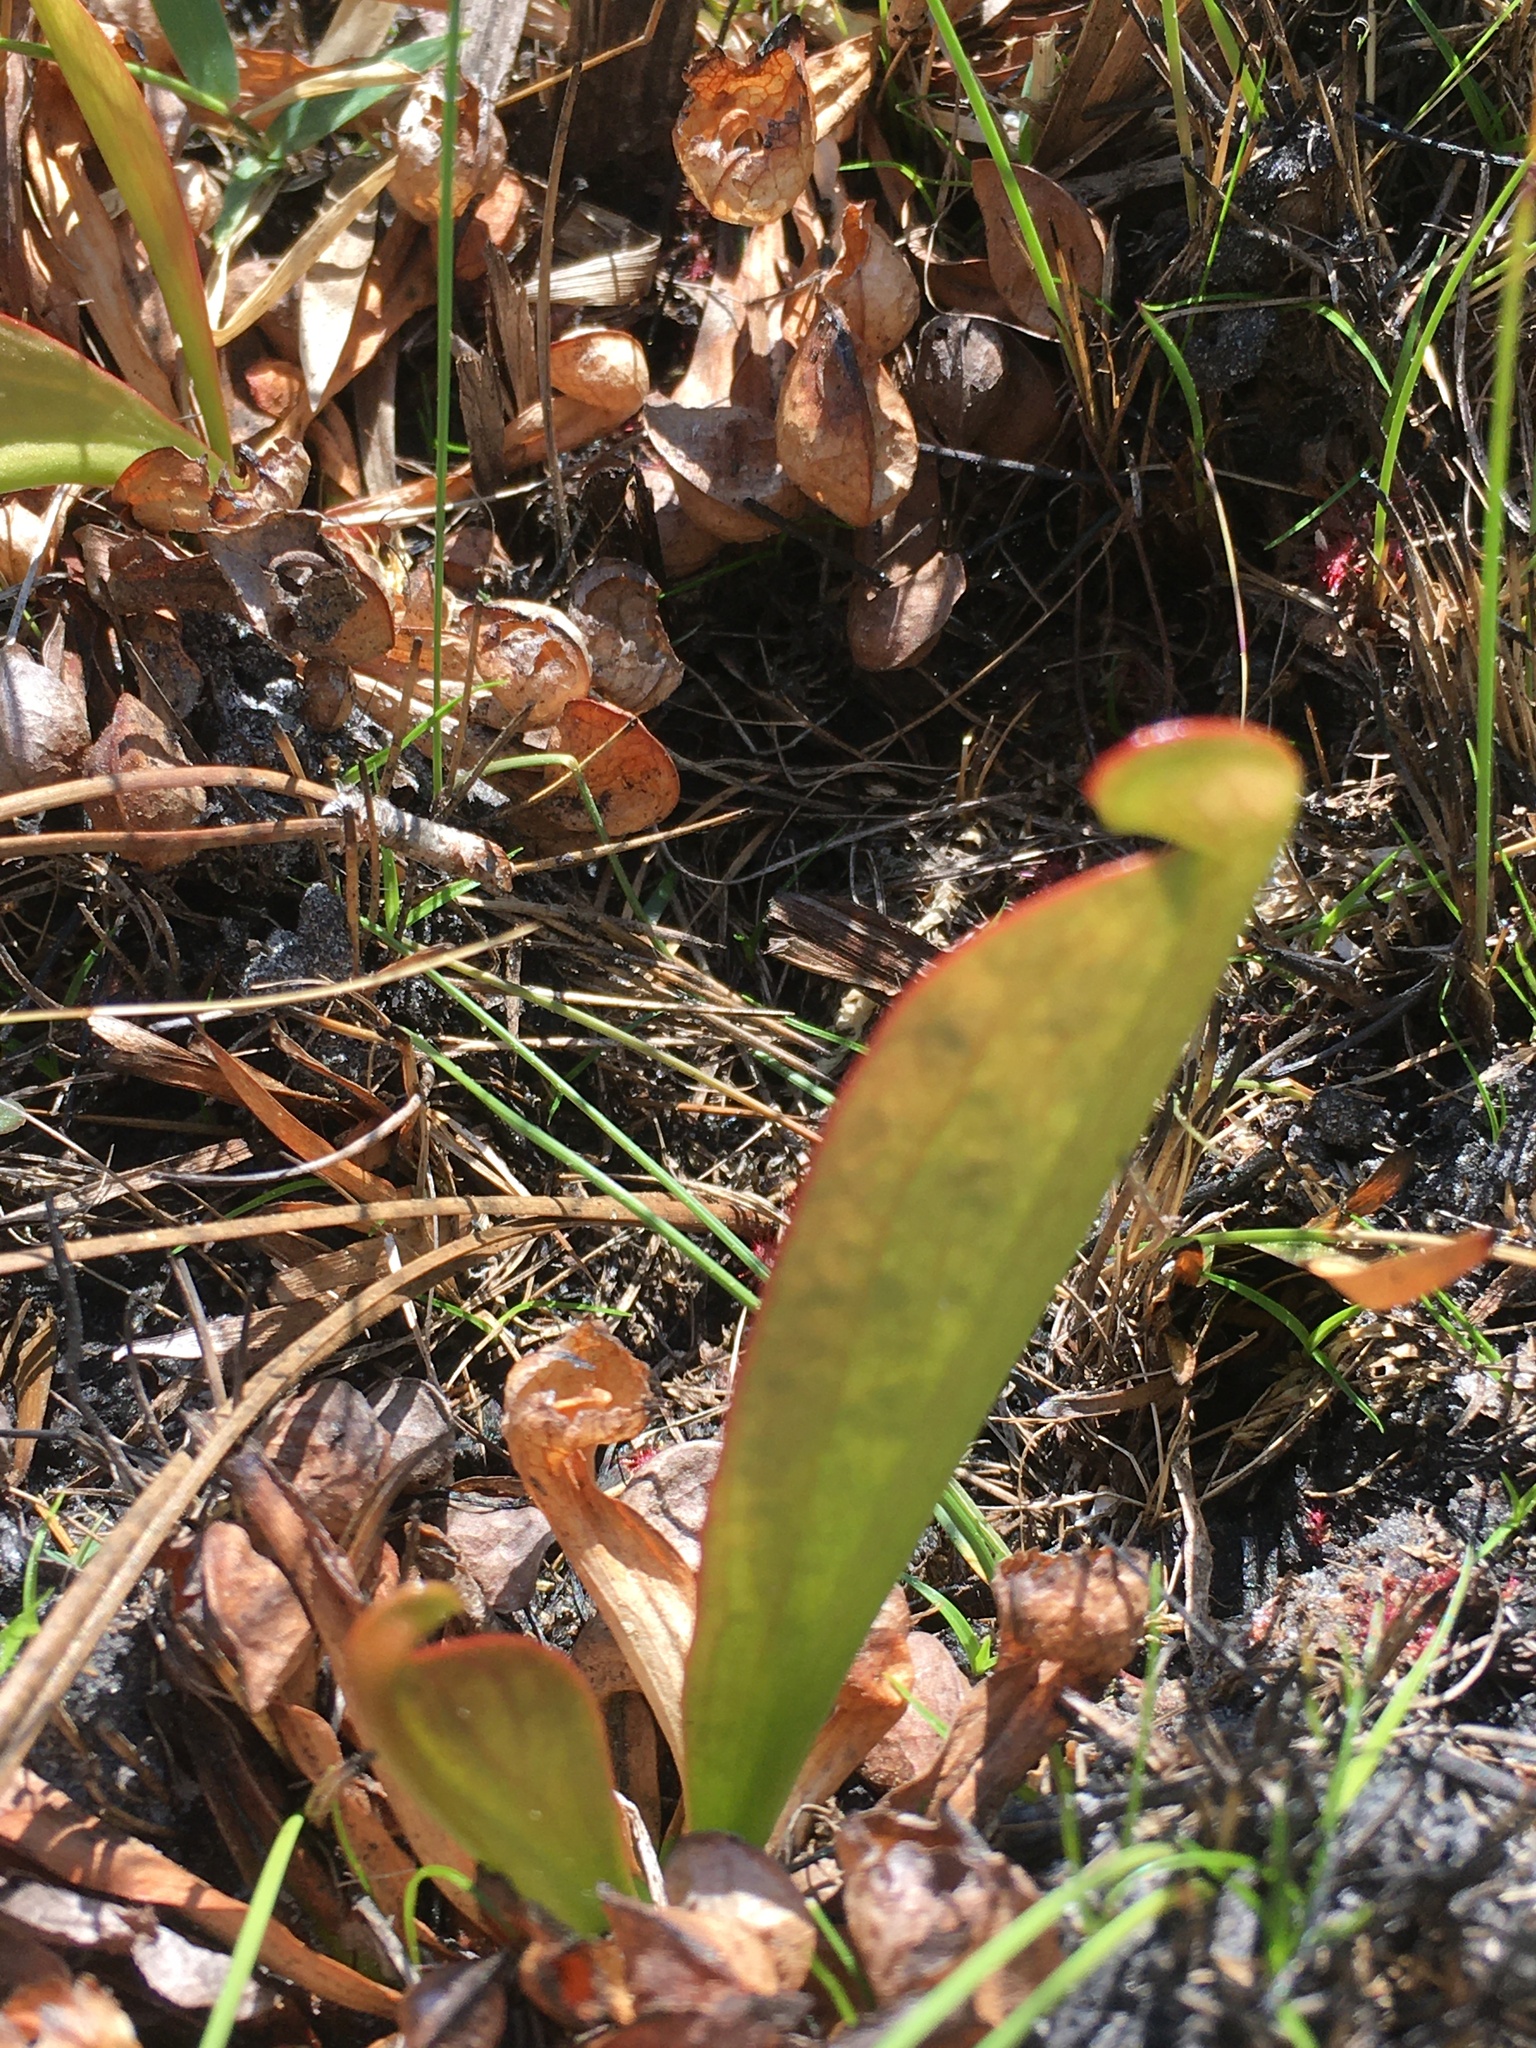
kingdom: Plantae
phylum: Tracheophyta
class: Magnoliopsida
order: Ericales
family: Sarraceniaceae
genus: Sarracenia
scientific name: Sarracenia psittacina
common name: Parrot pitcherplant
